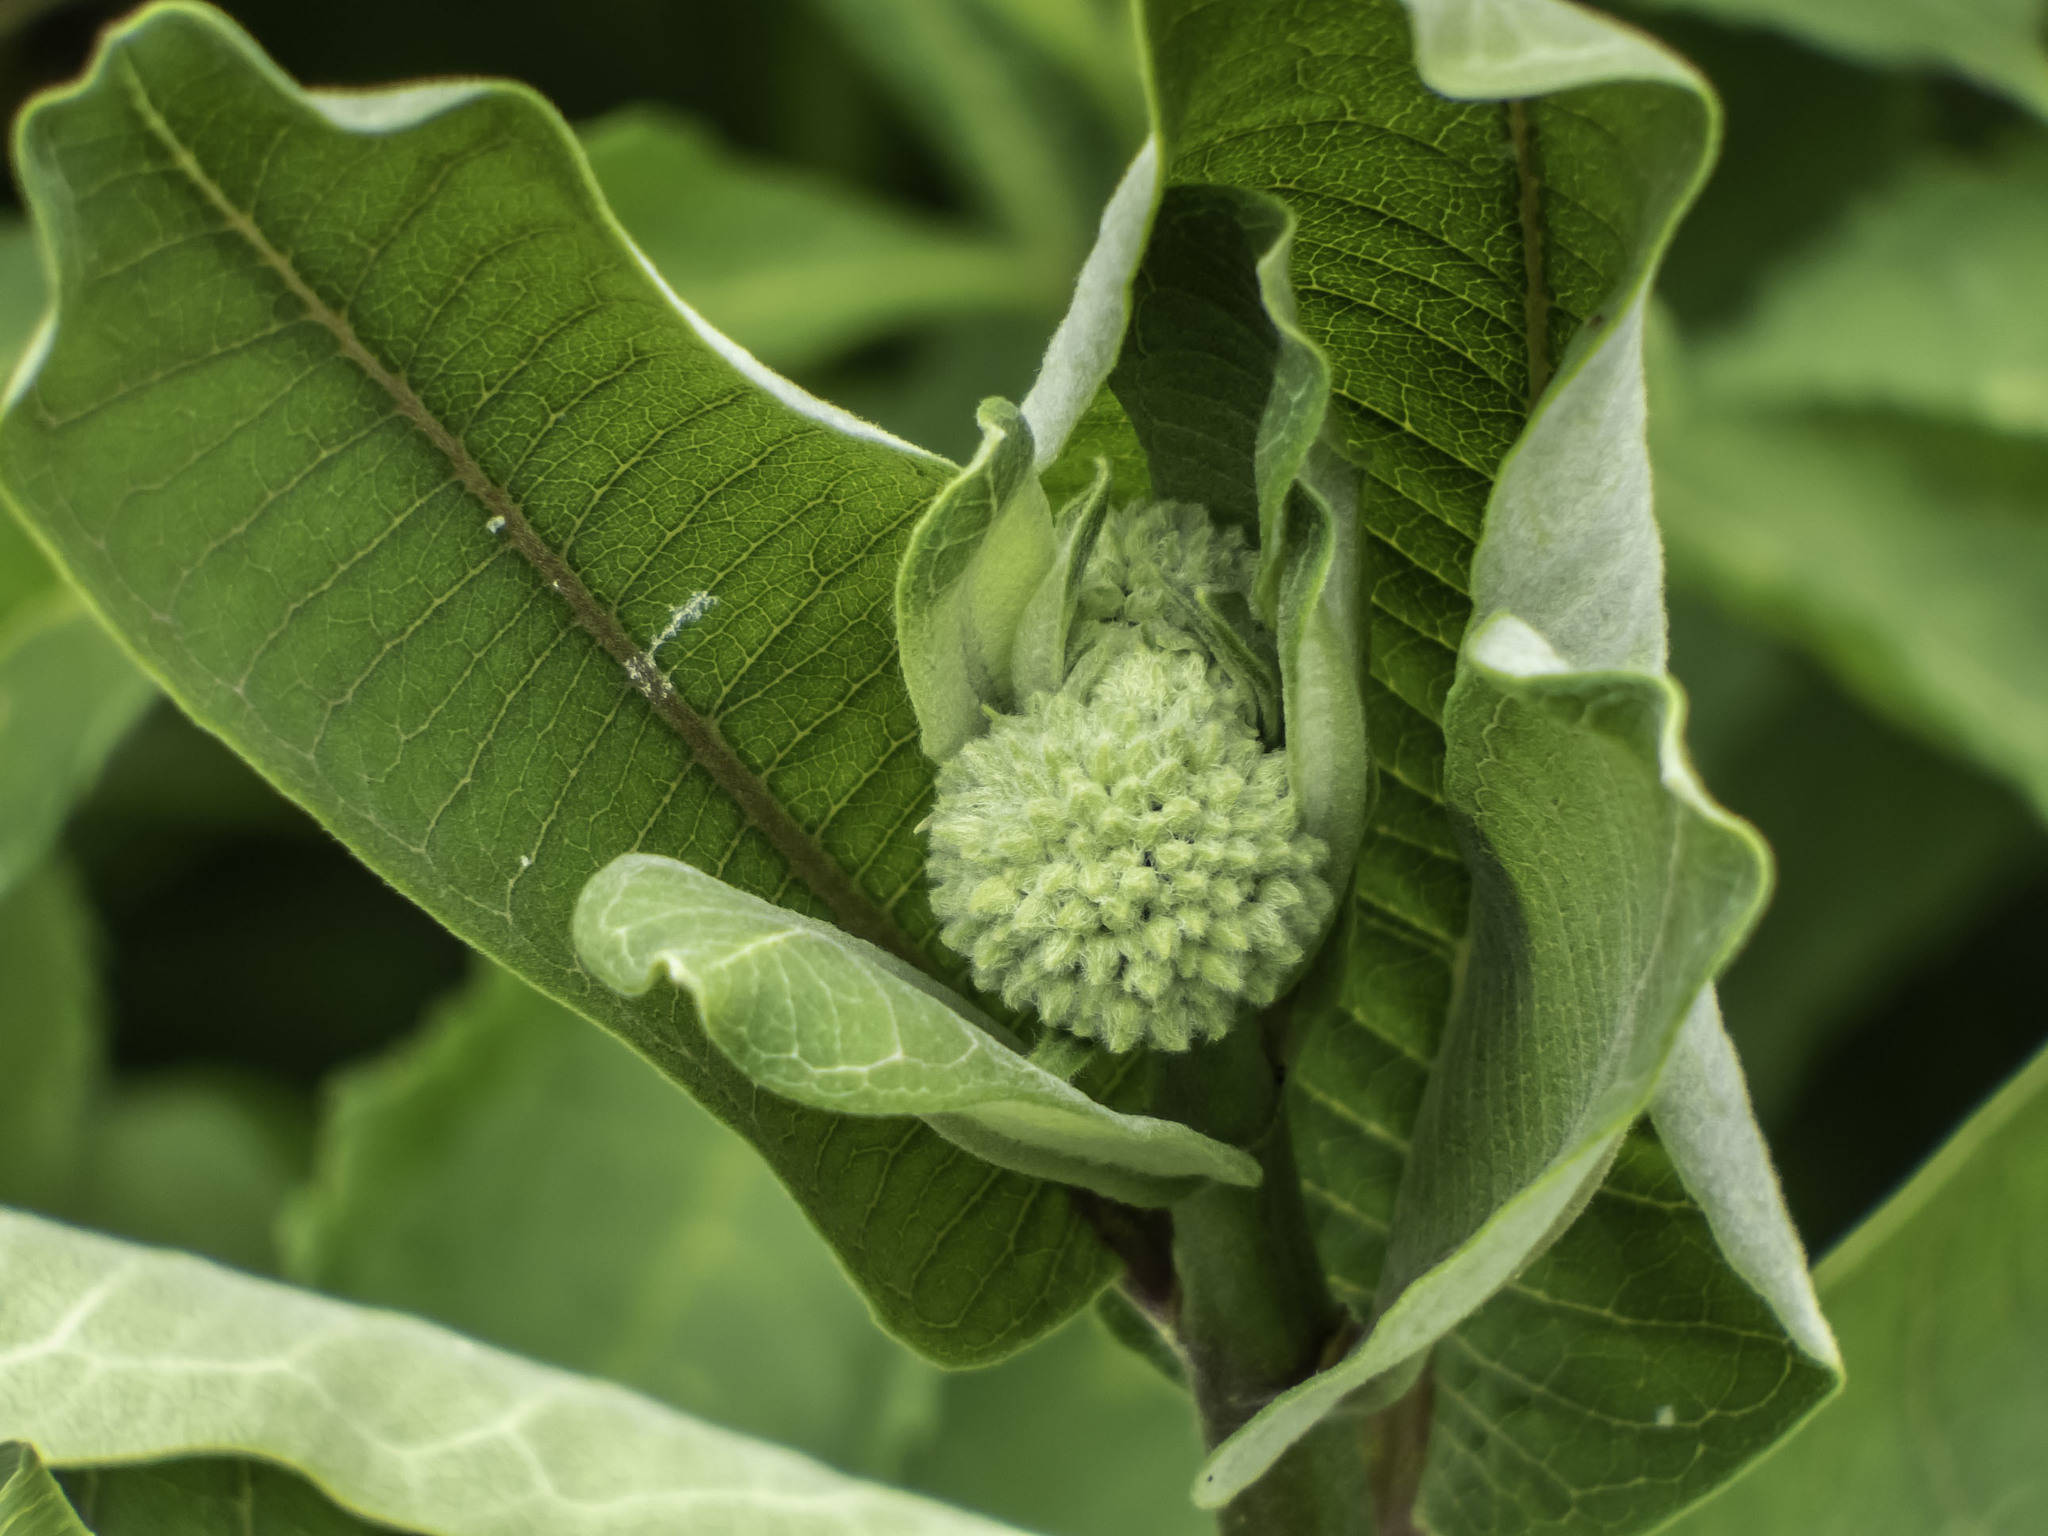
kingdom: Plantae
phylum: Tracheophyta
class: Magnoliopsida
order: Gentianales
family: Apocynaceae
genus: Asclepias
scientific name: Asclepias syriaca
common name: Common milkweed
